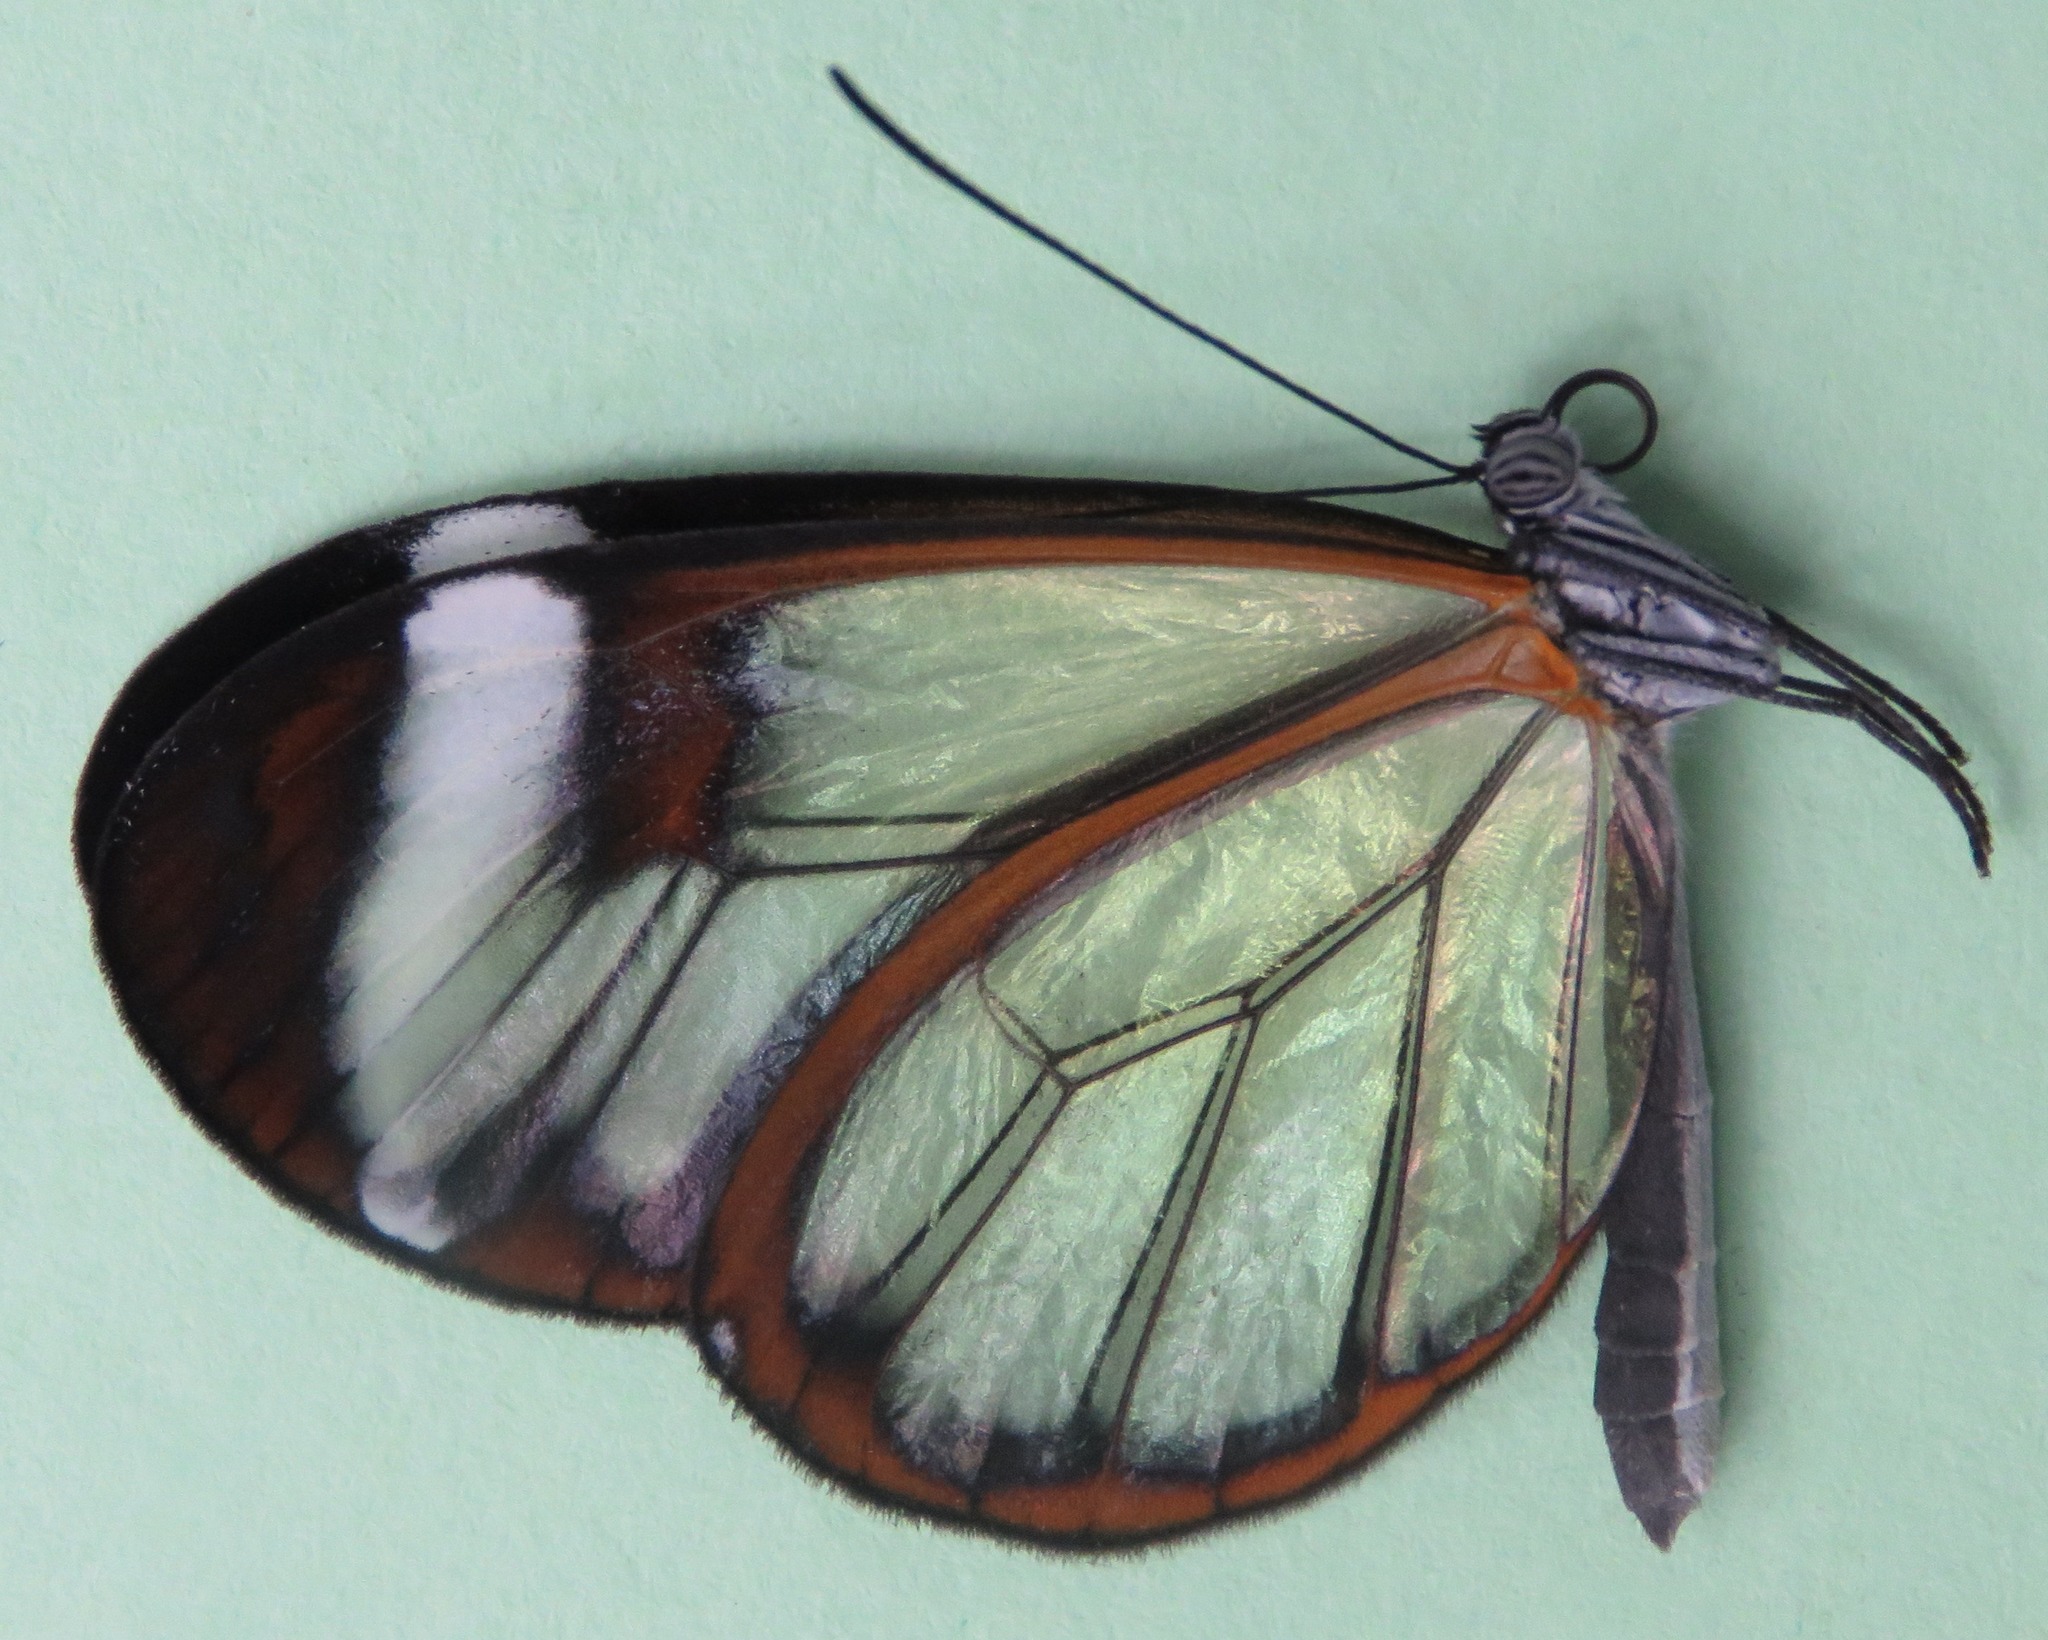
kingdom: Animalia
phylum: Arthropoda
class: Insecta
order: Lepidoptera
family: Nymphalidae
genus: Greta
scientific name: Greta morgane
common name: Thick-tipped greta
